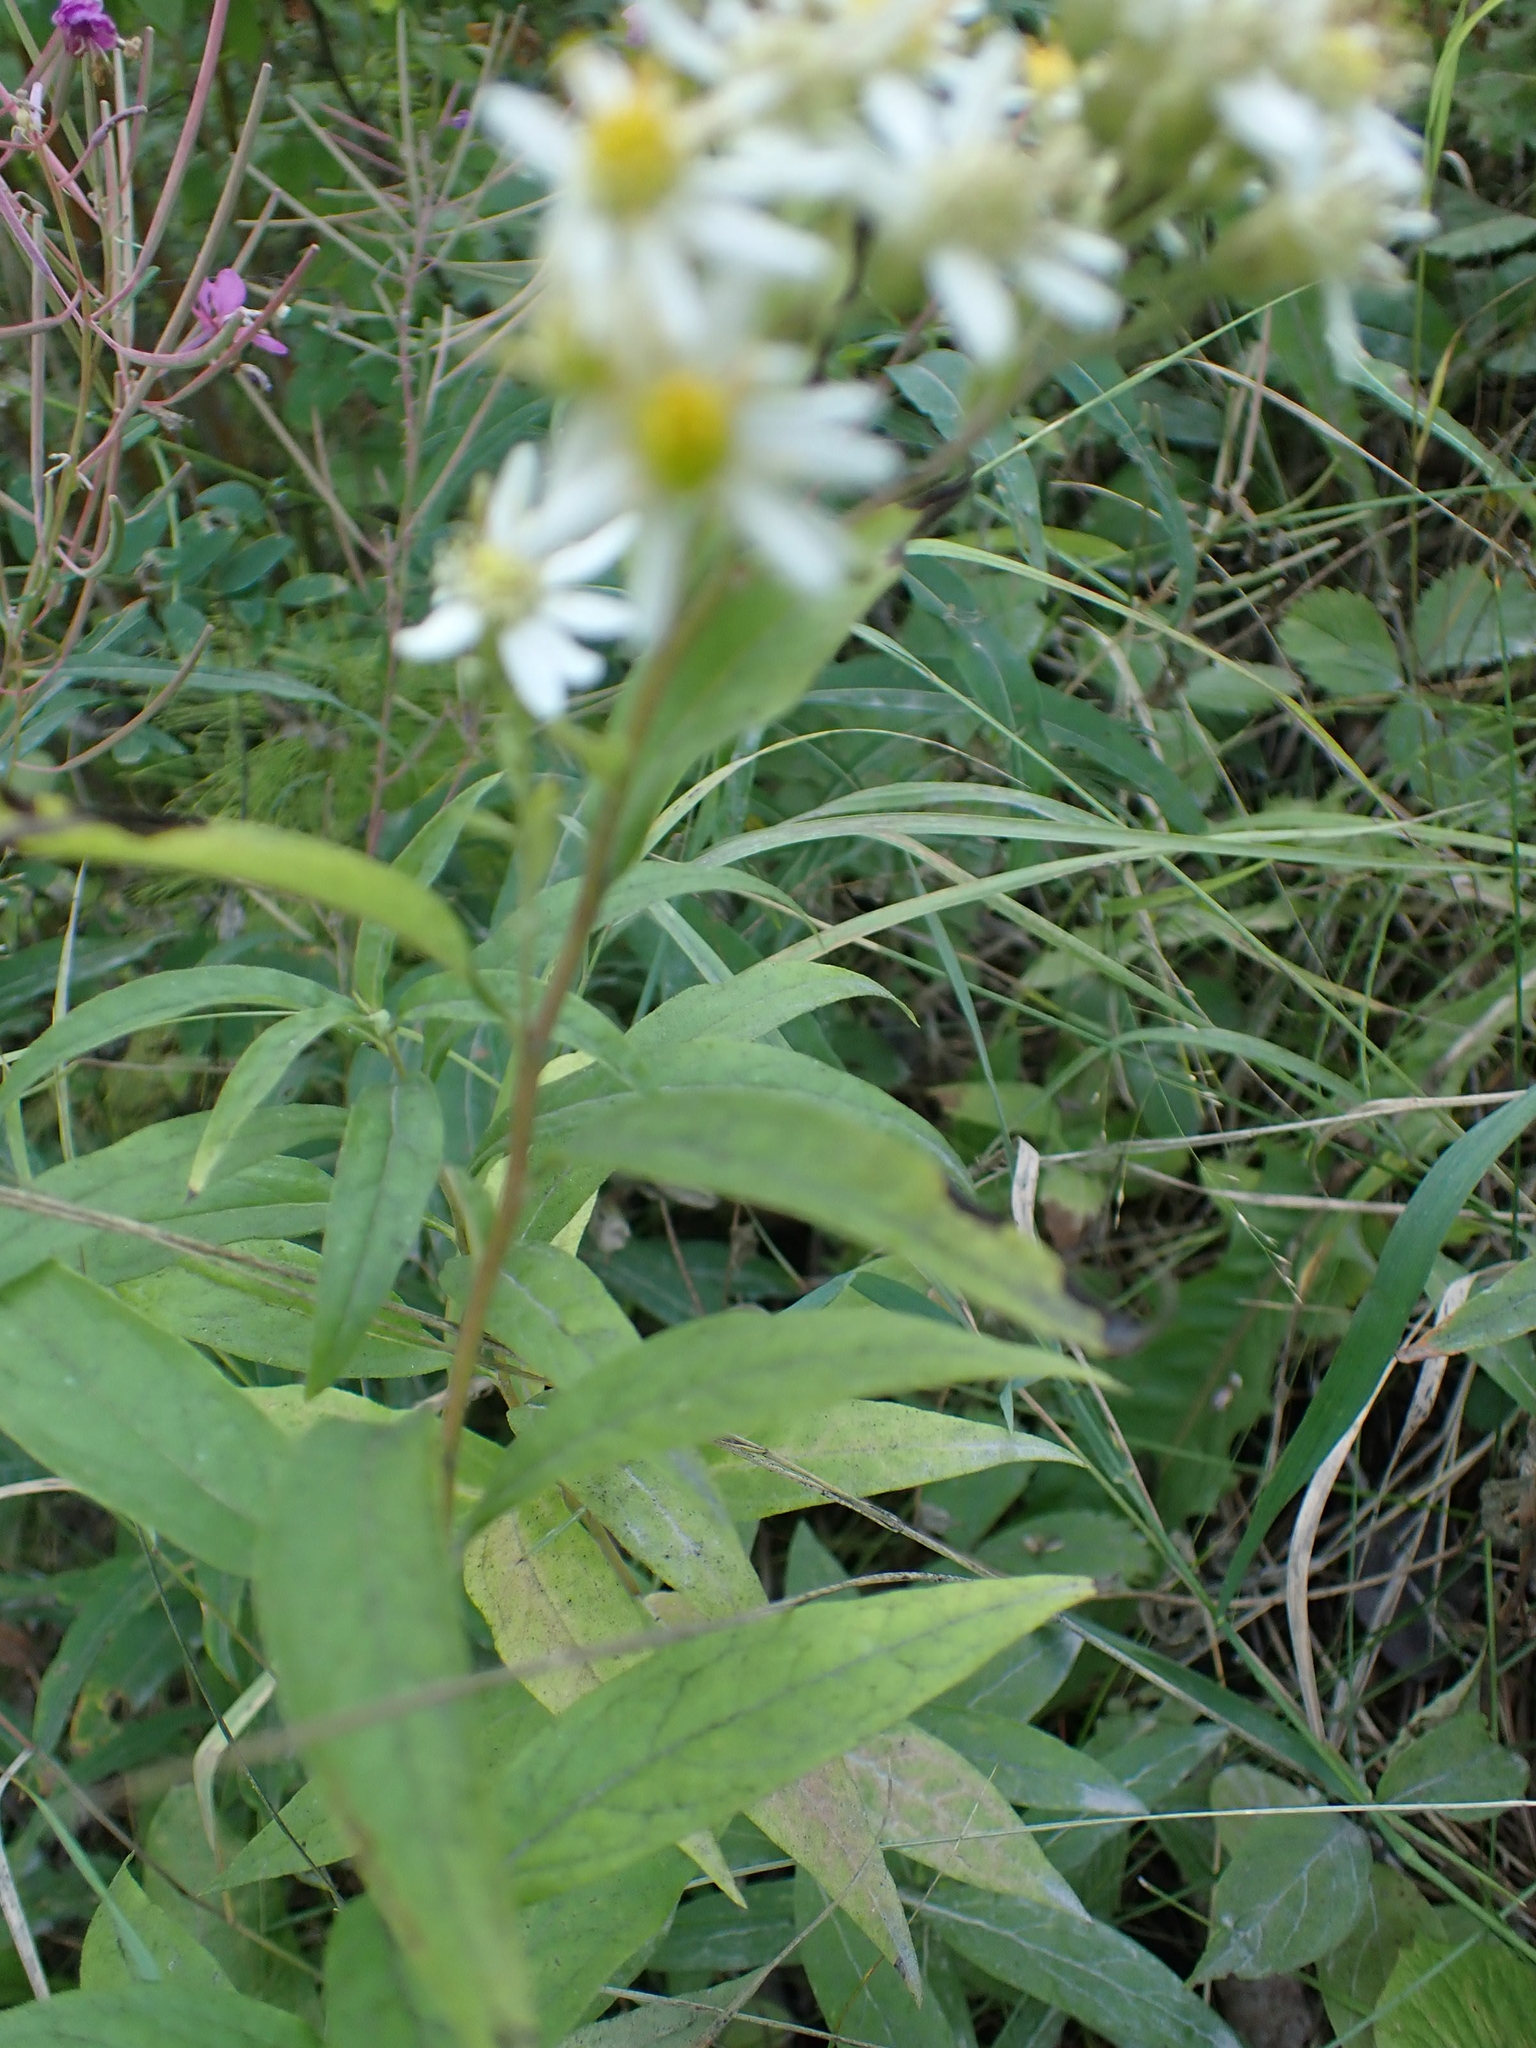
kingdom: Plantae
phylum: Tracheophyta
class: Magnoliopsida
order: Asterales
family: Asteraceae
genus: Doellingeria
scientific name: Doellingeria umbellata
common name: Flat-top white aster
